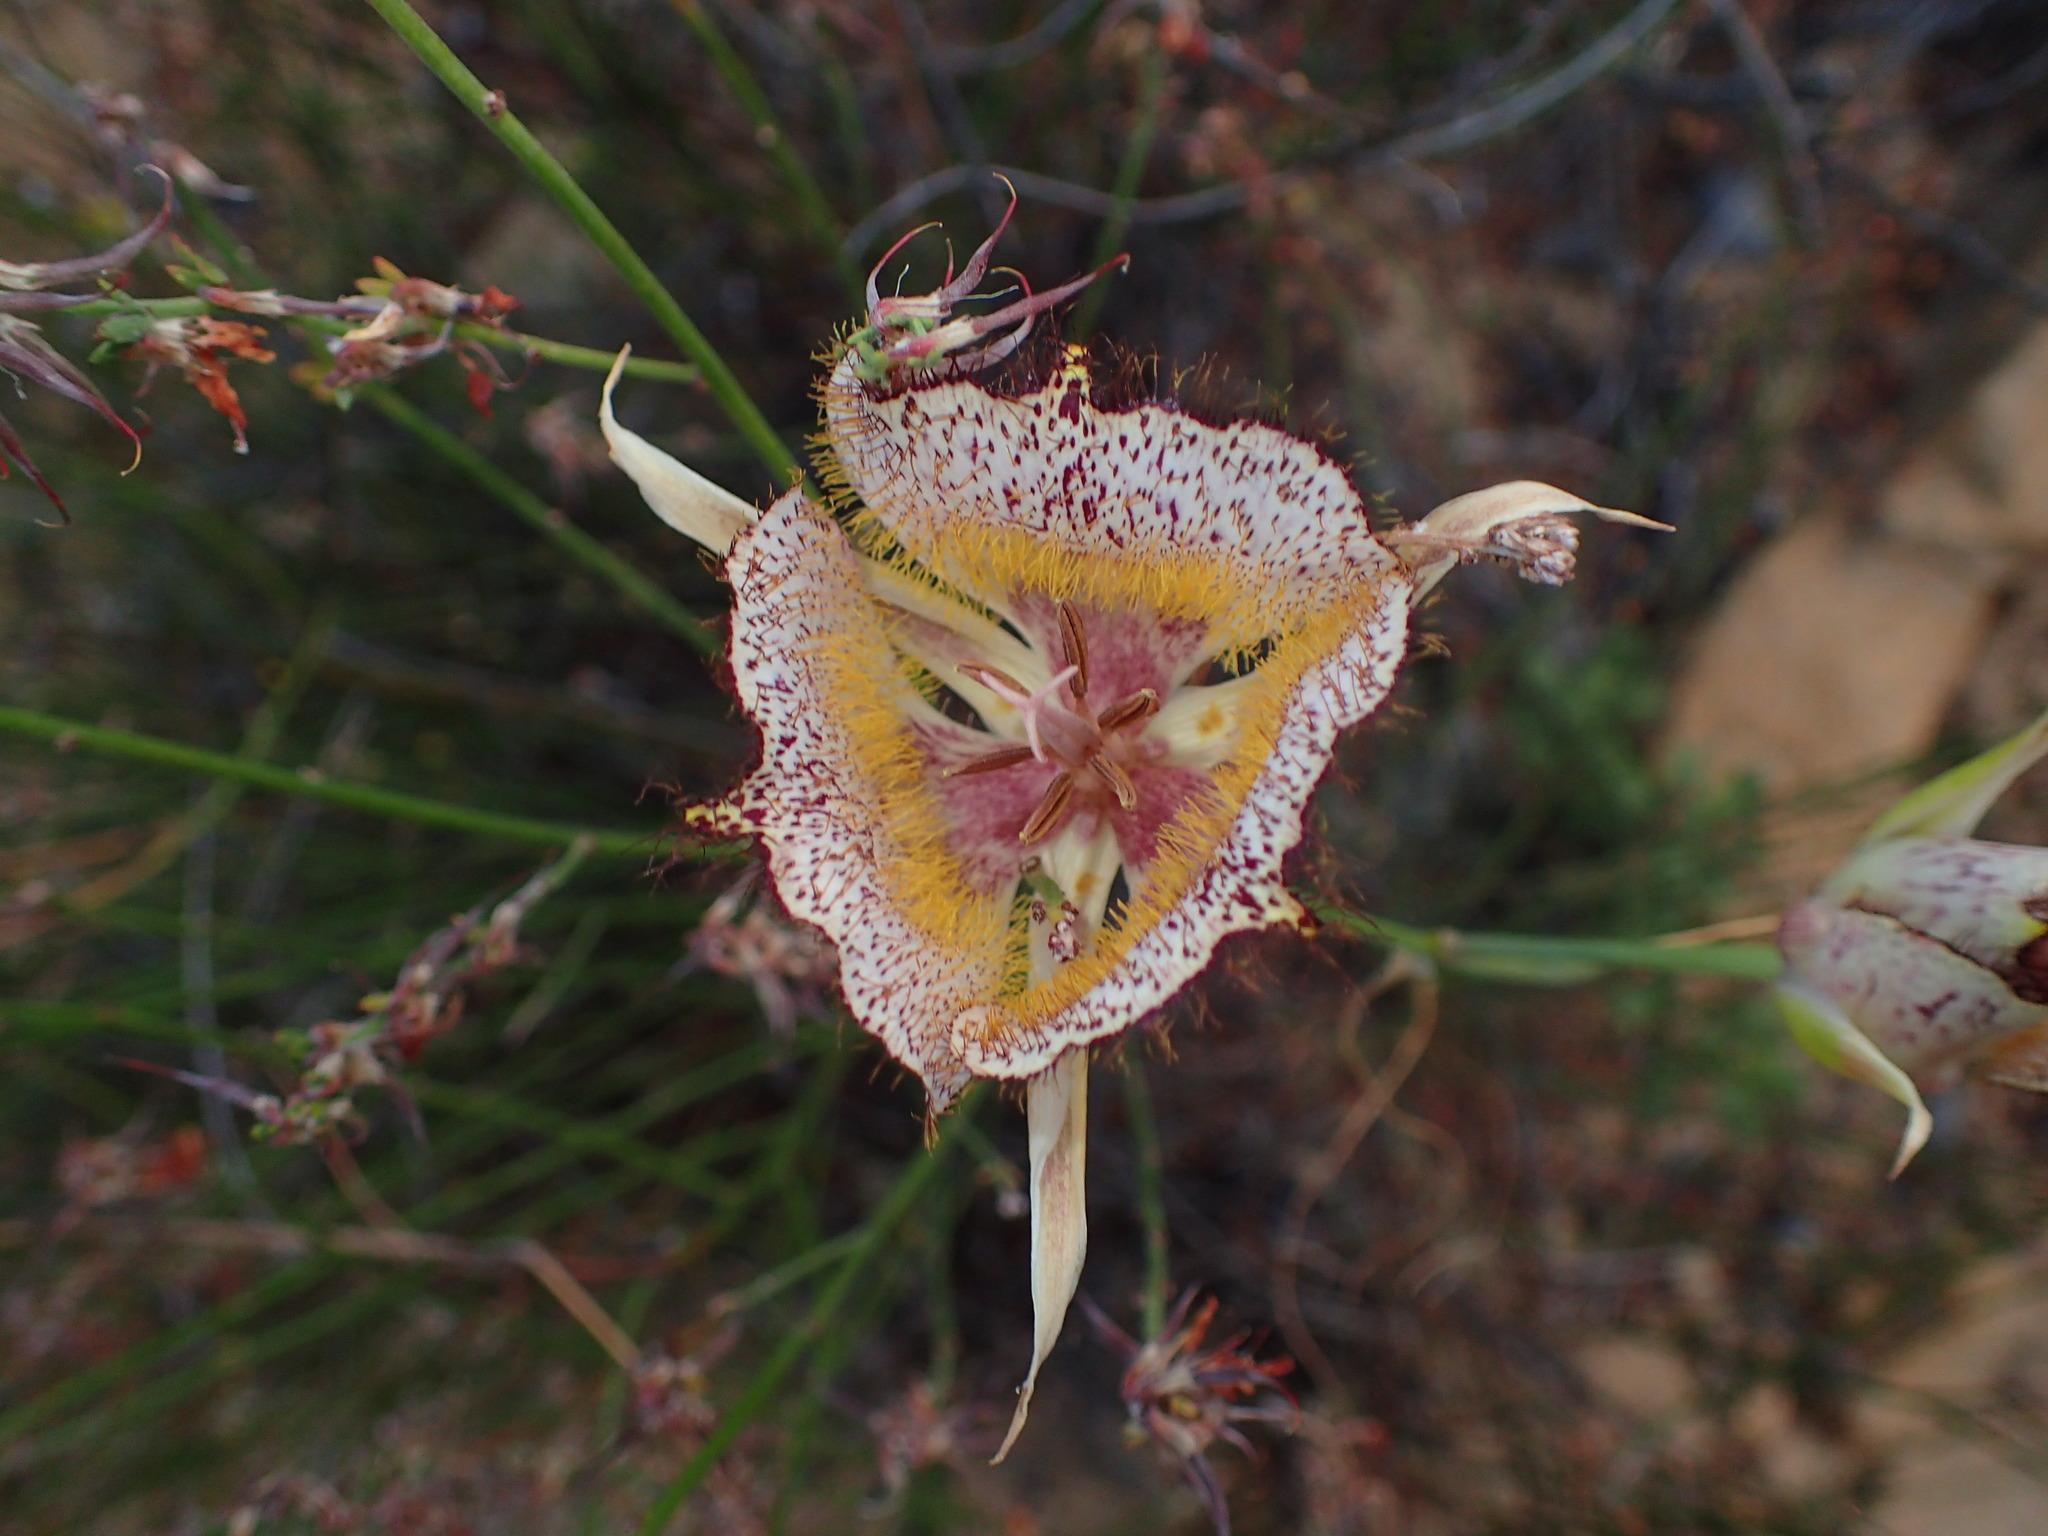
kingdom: Plantae
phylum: Tracheophyta
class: Liliopsida
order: Liliales
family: Liliaceae
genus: Calochortus
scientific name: Calochortus fimbriatus
